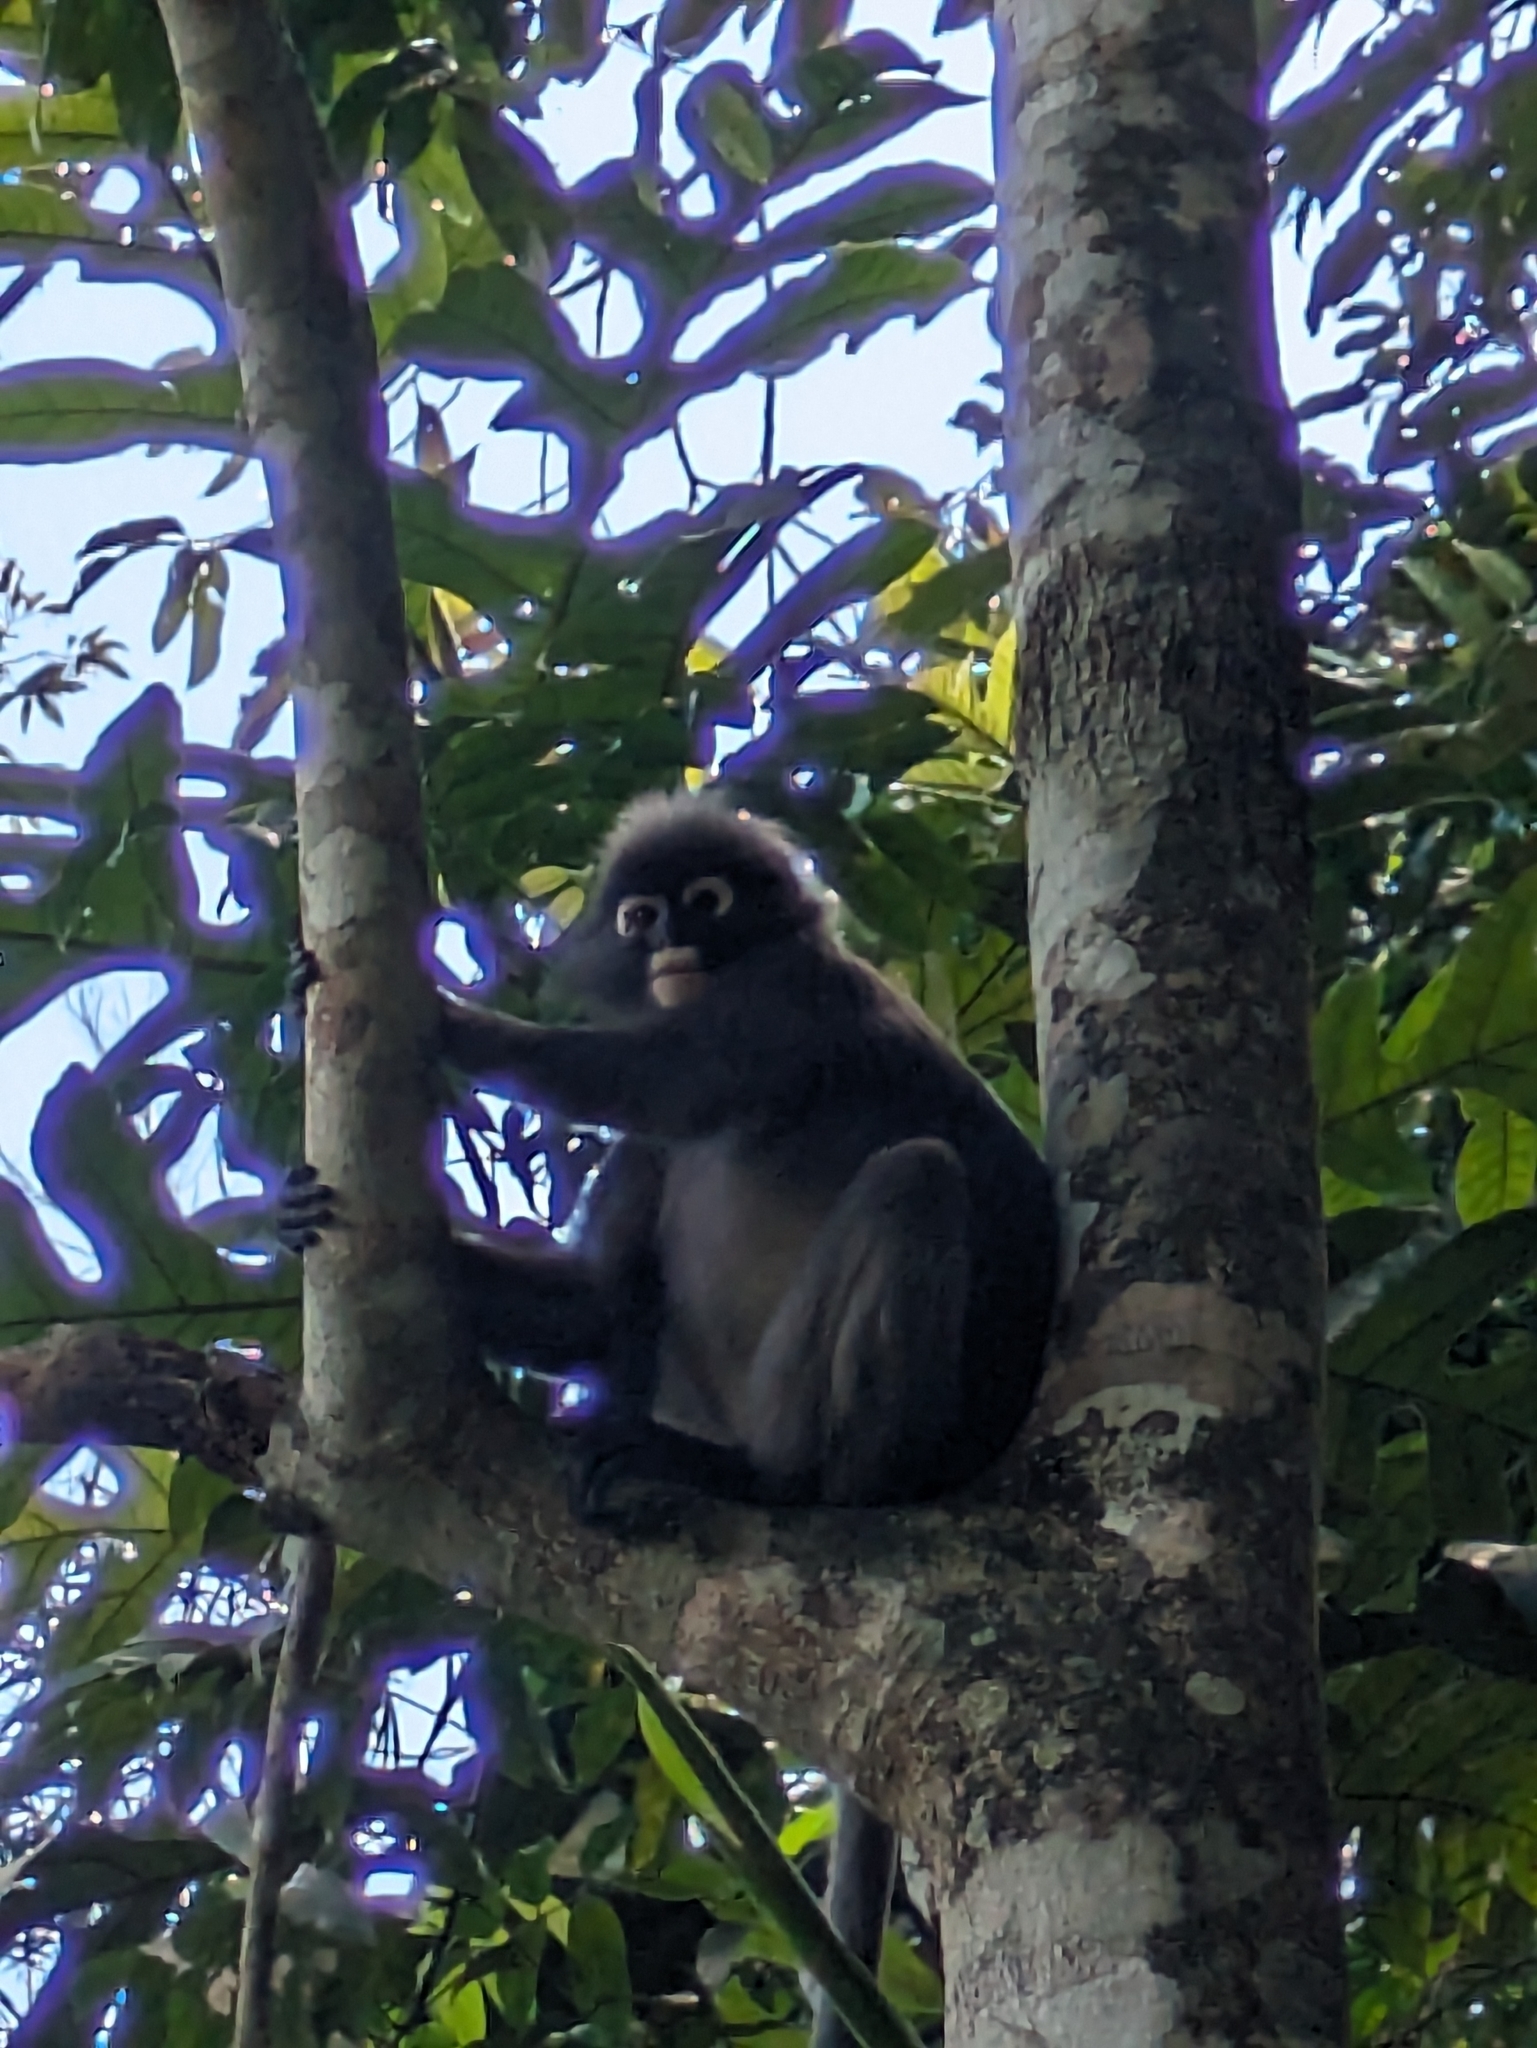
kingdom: Animalia
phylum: Chordata
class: Mammalia
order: Primates
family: Cercopithecidae
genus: Trachypithecus
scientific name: Trachypithecus obscurus
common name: Dusky leaf-monkey
